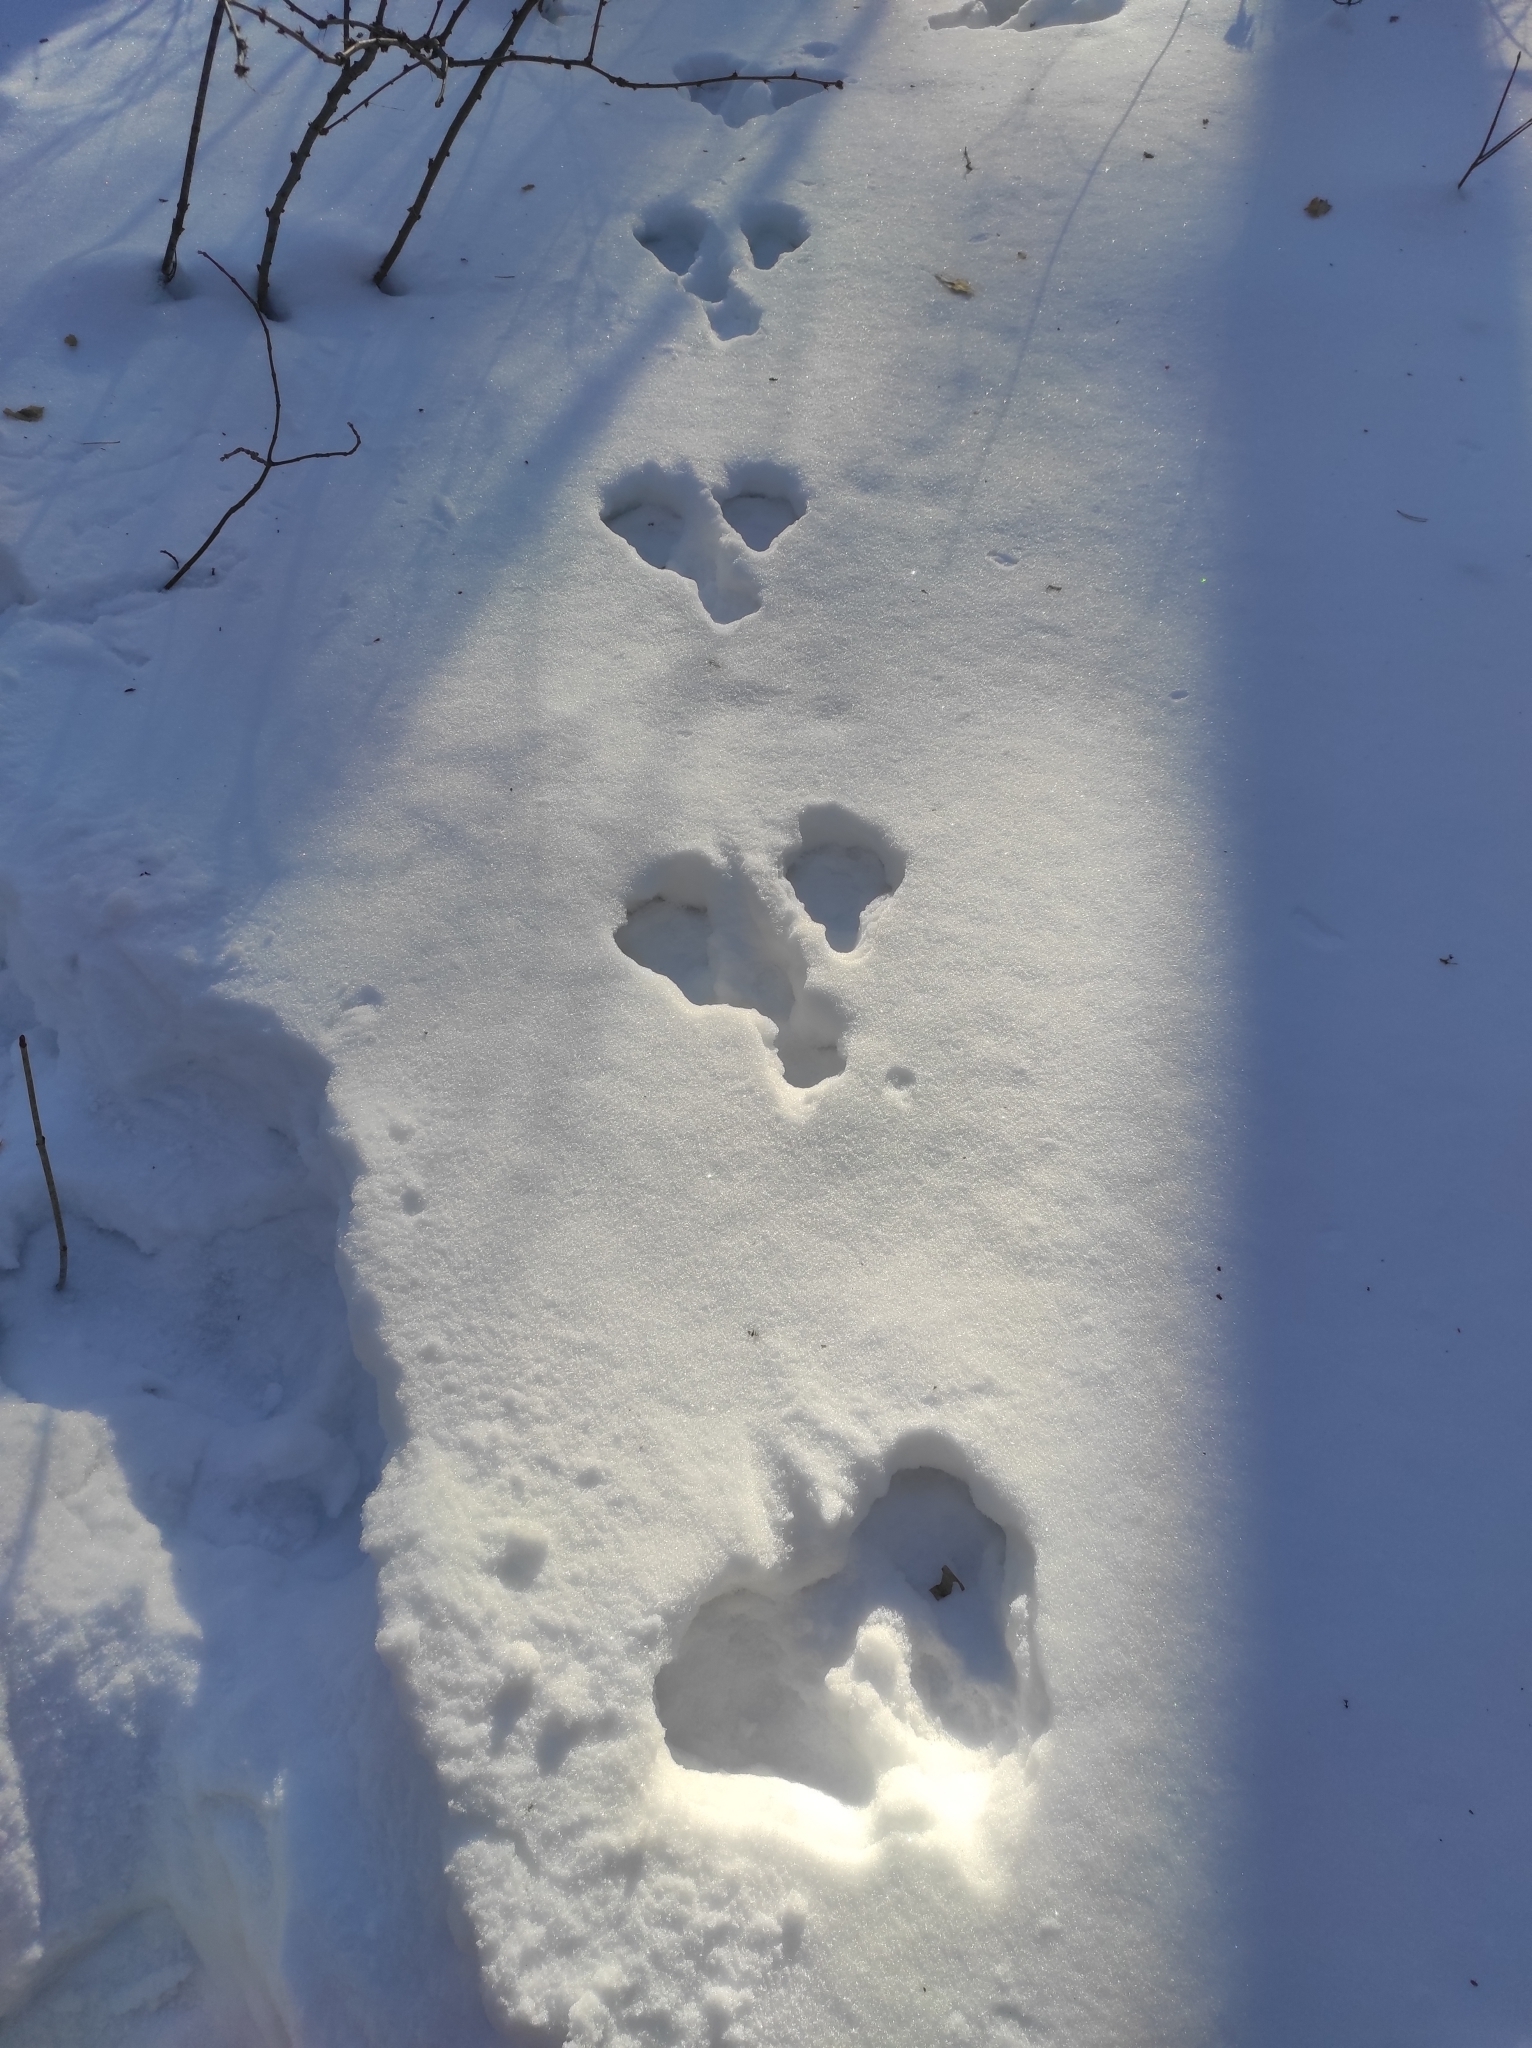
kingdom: Animalia
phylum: Chordata
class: Mammalia
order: Lagomorpha
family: Leporidae
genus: Lepus
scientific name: Lepus timidus
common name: Mountain hare
